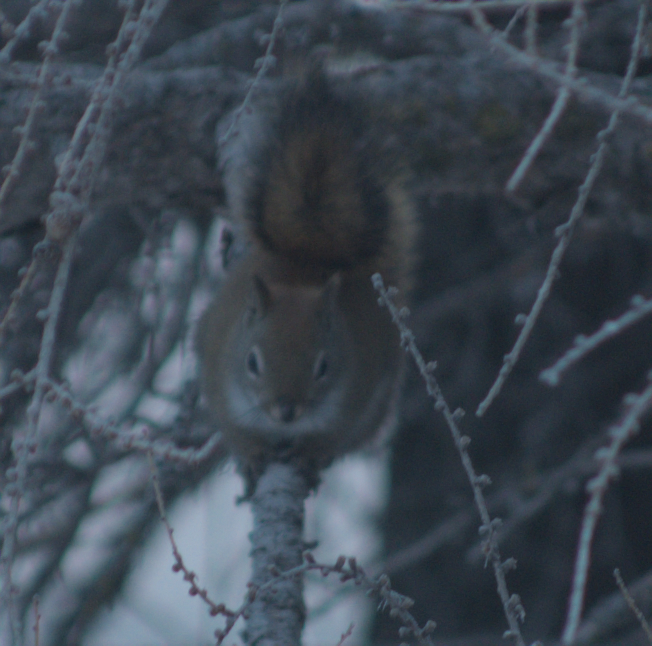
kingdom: Animalia
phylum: Chordata
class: Mammalia
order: Rodentia
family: Sciuridae
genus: Tamiasciurus
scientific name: Tamiasciurus hudsonicus
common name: Red squirrel
